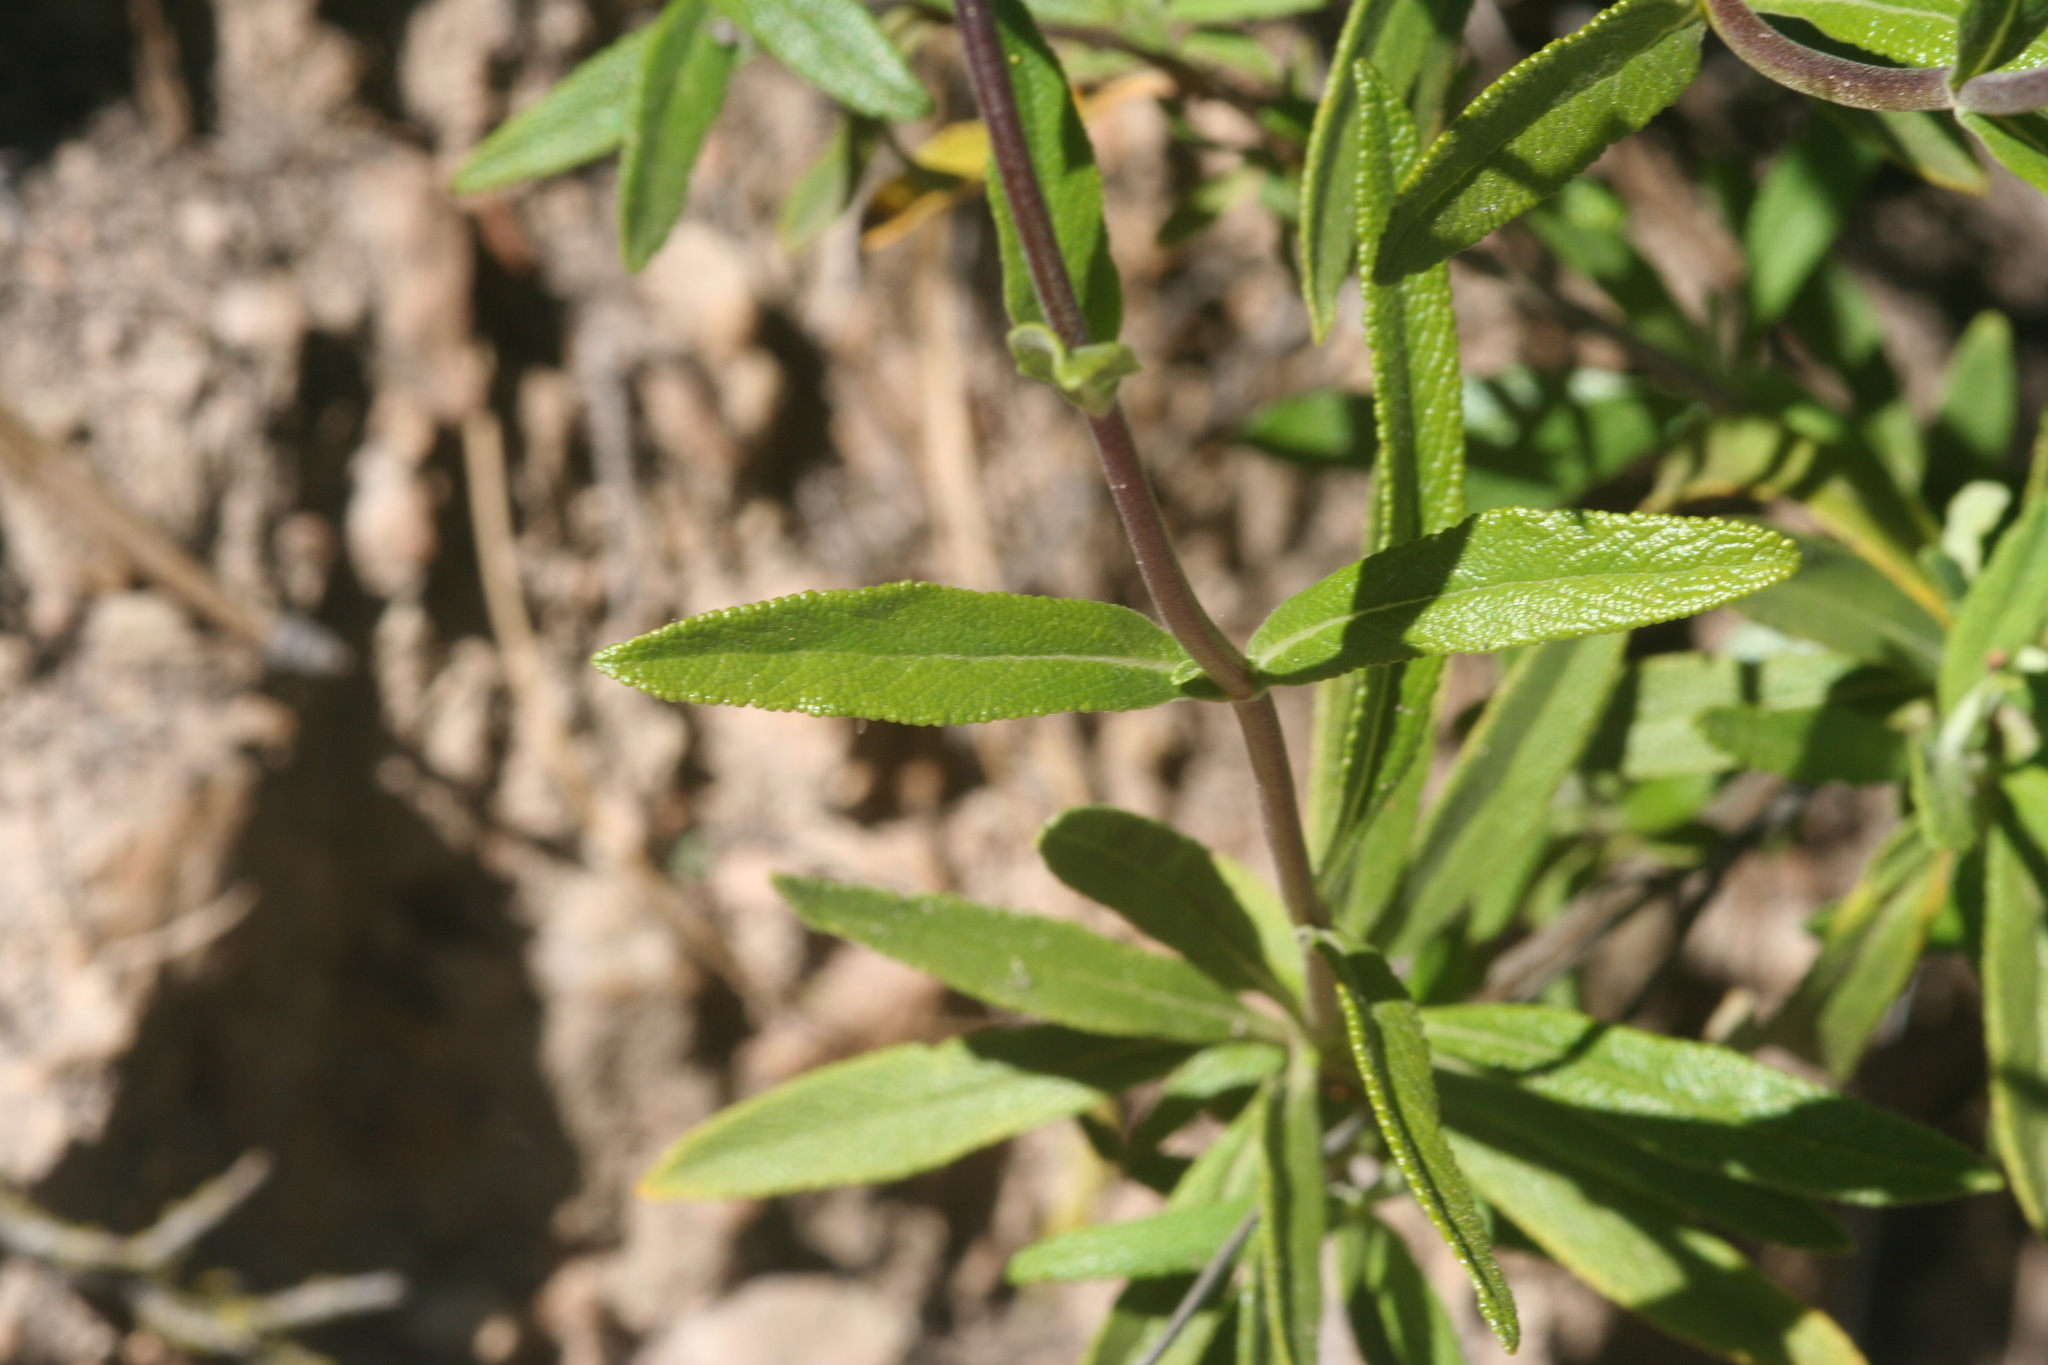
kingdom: Plantae
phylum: Tracheophyta
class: Magnoliopsida
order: Lamiales
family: Lamiaceae
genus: Salvia
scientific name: Salvia mellifera
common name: Black sage
